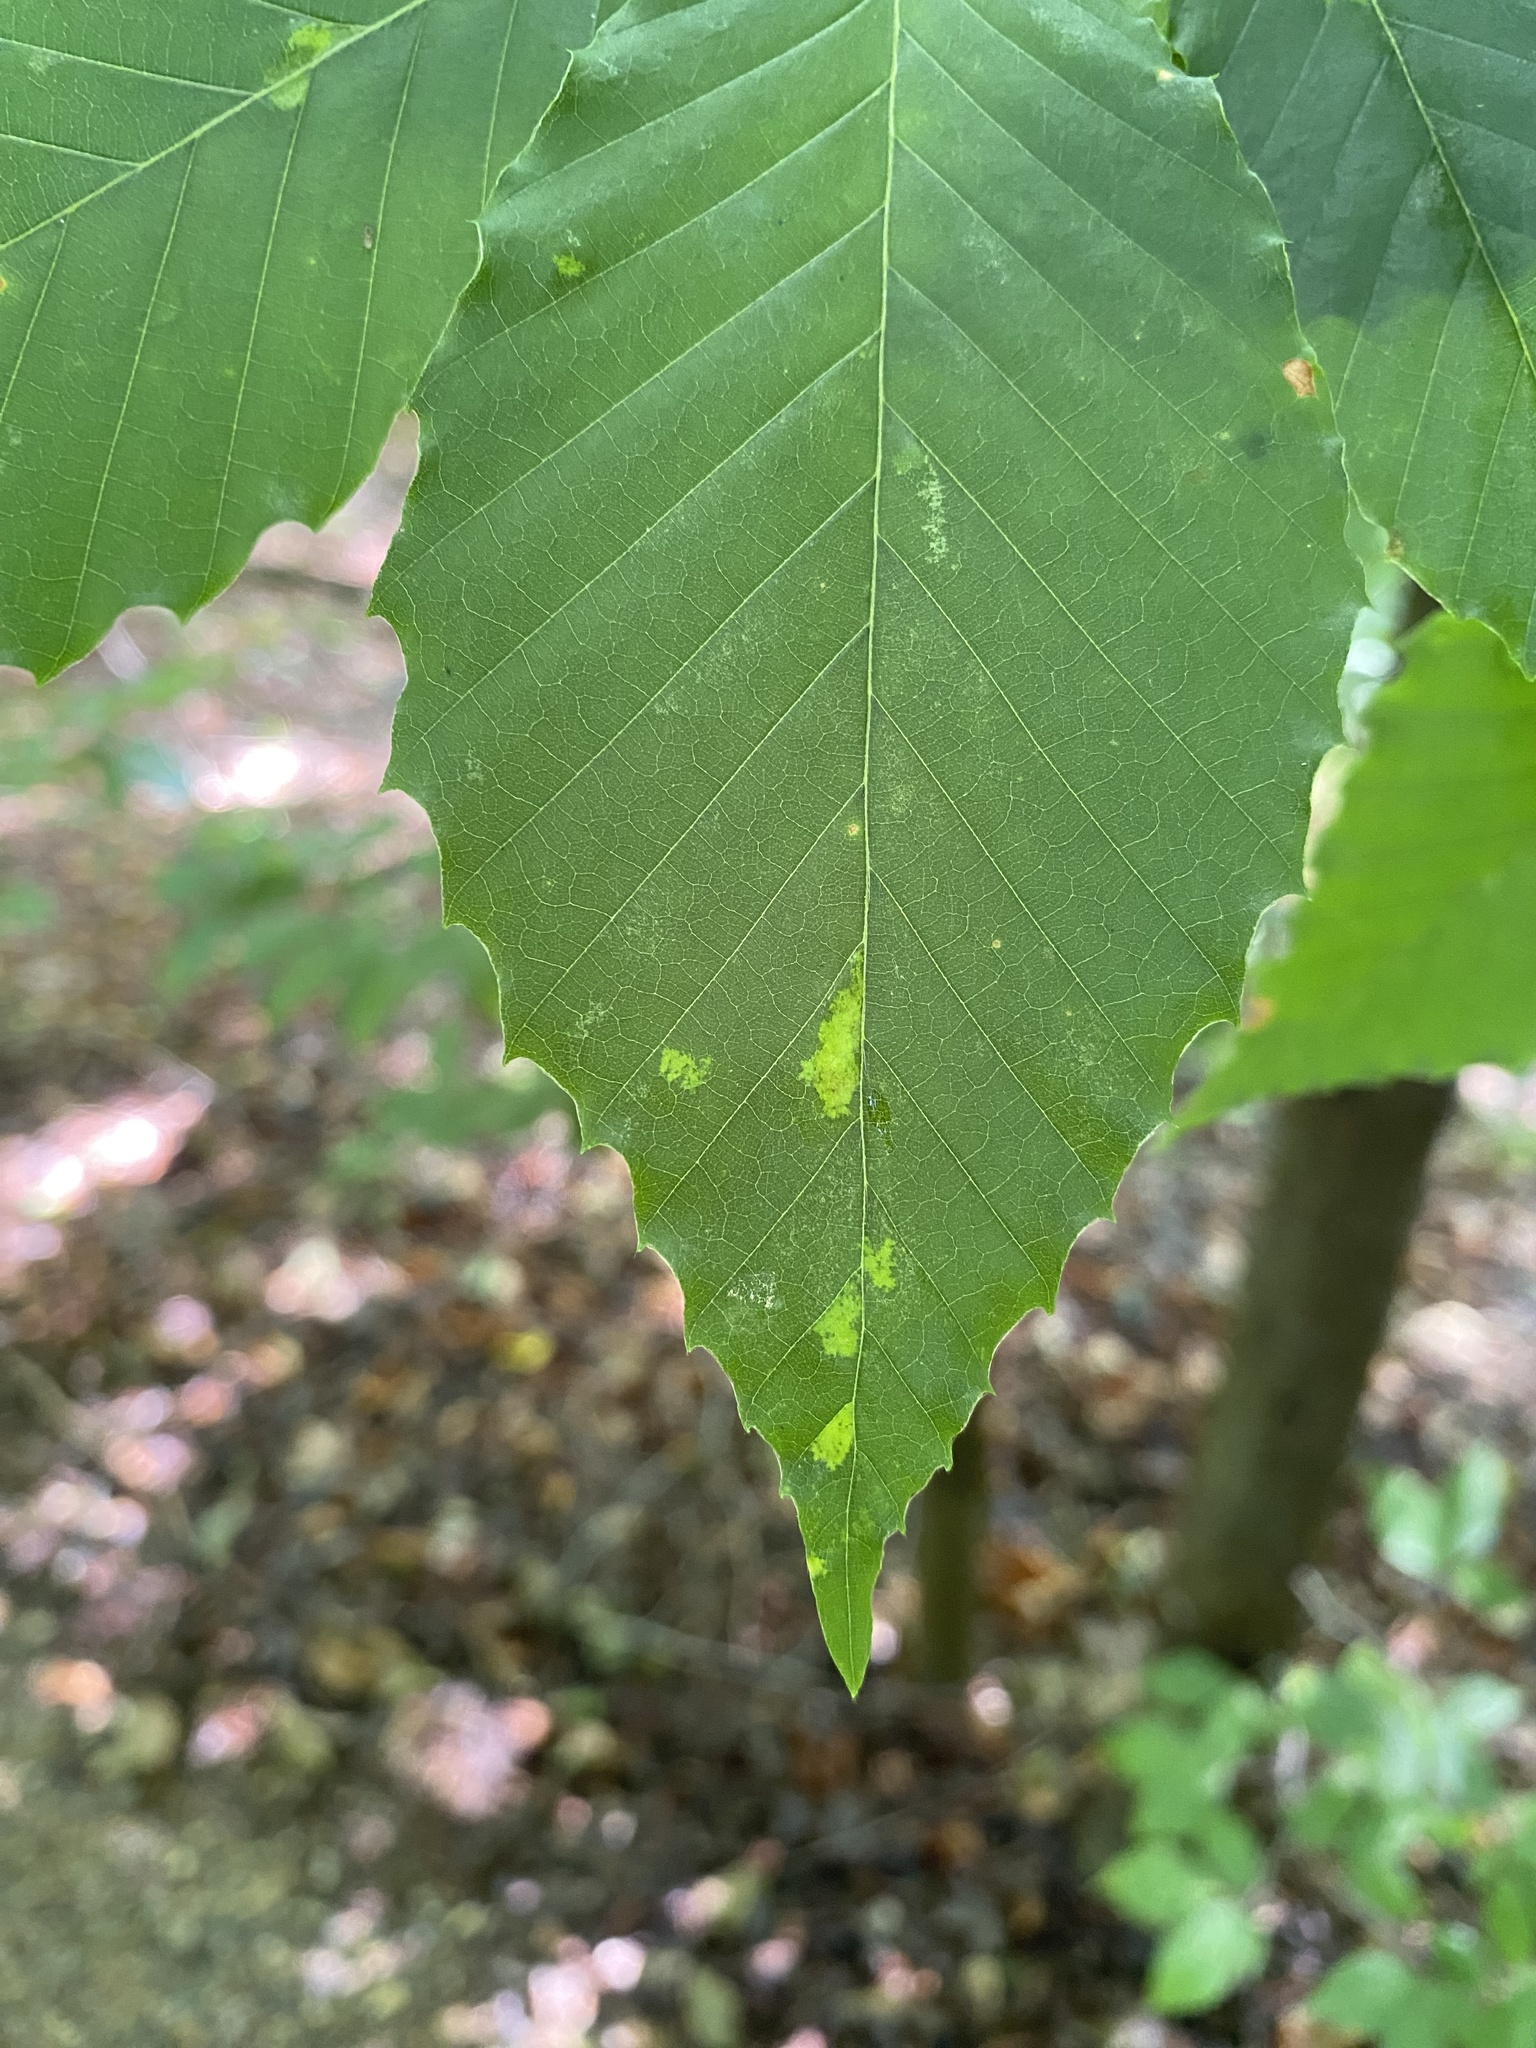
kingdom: Animalia
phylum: Arthropoda
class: Arachnida
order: Trombidiformes
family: Eriophyidae
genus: Acalitus
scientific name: Acalitus
